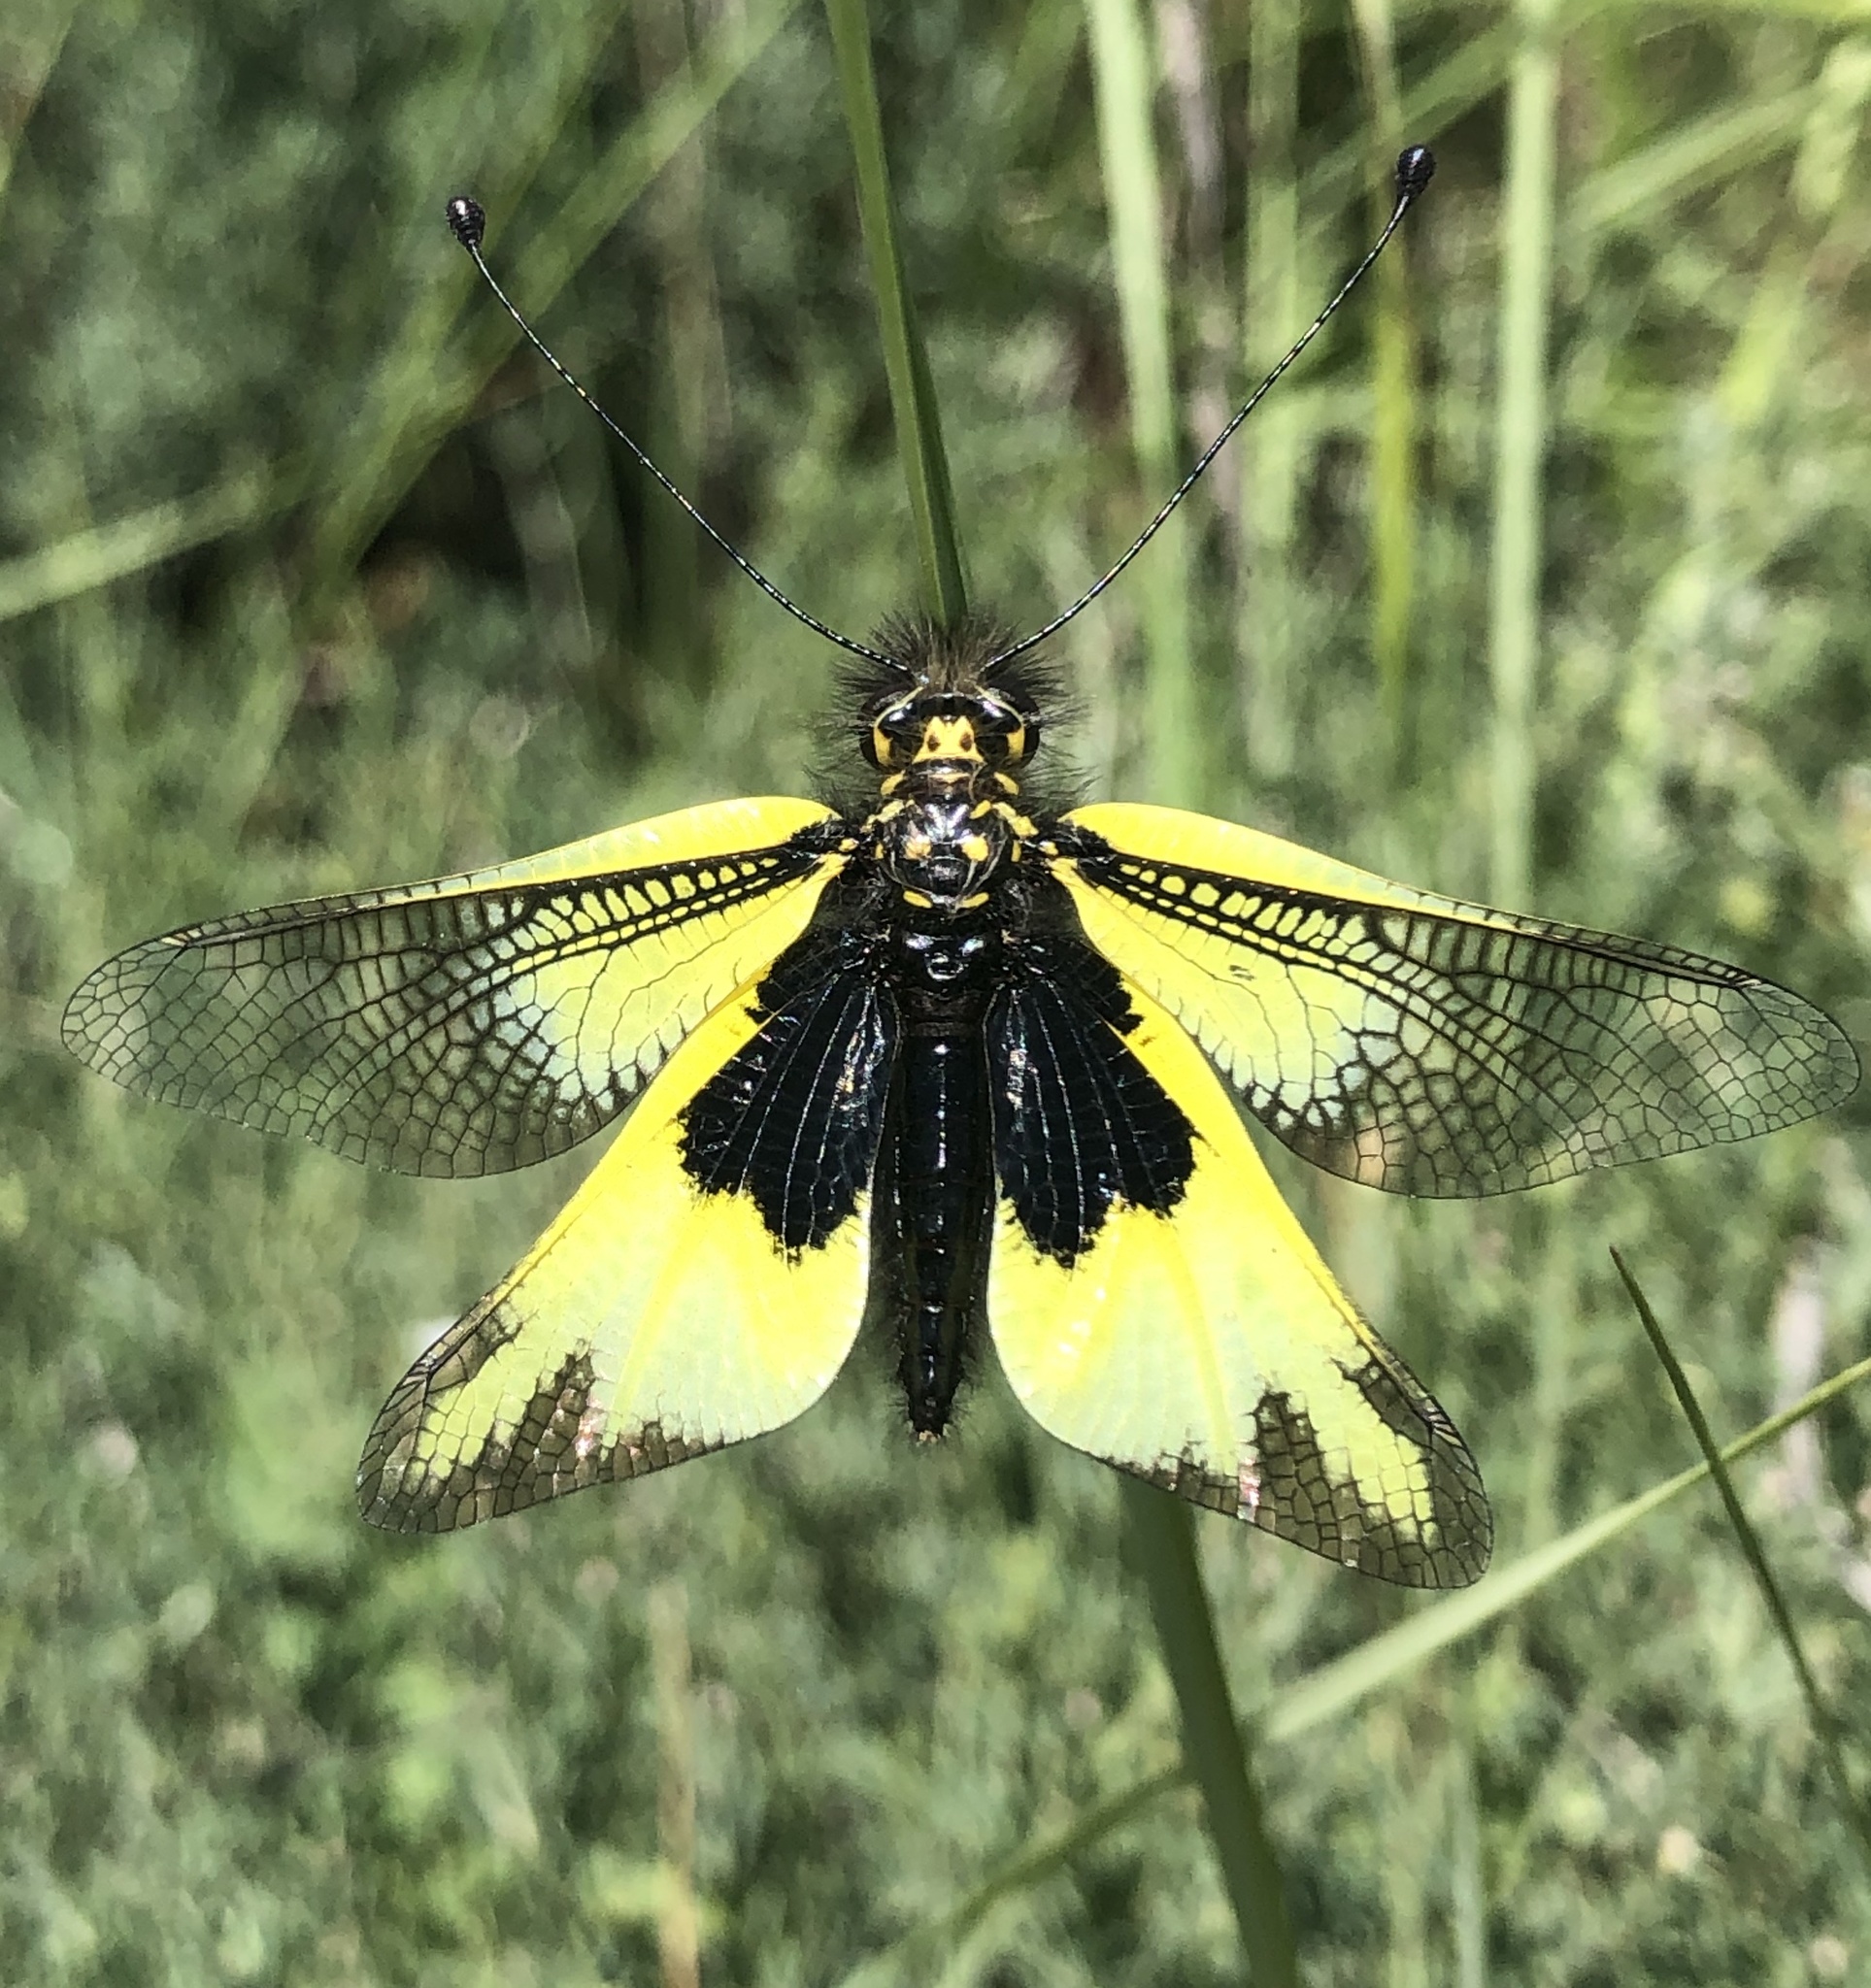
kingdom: Animalia
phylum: Arthropoda
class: Insecta
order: Neuroptera
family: Ascalaphidae
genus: Libelloides
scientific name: Libelloides cunii
